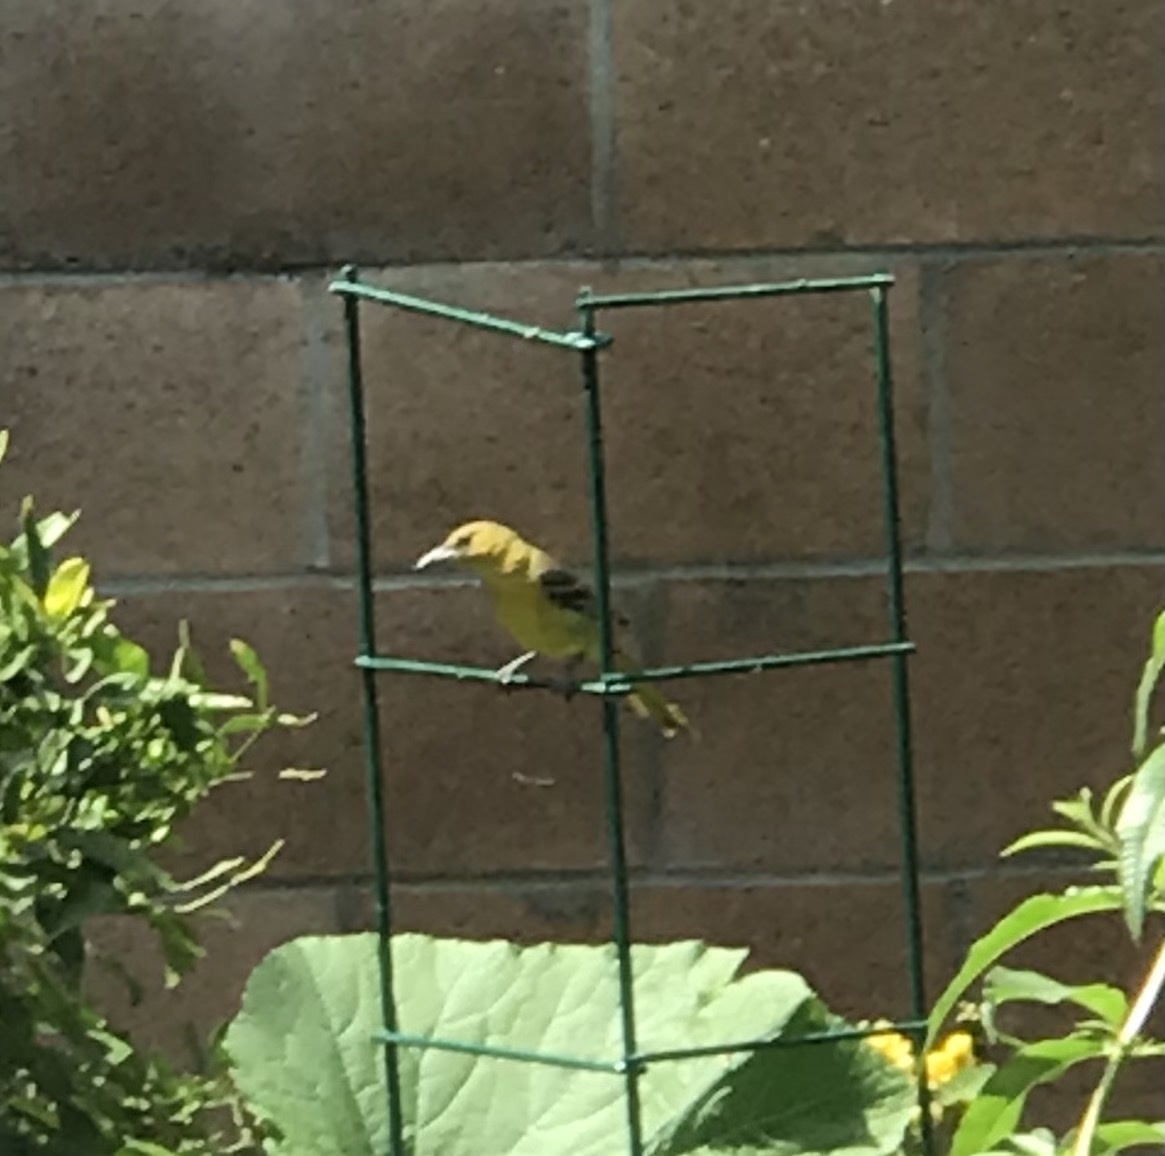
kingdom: Animalia
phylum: Chordata
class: Aves
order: Passeriformes
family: Icteridae
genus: Icterus
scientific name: Icterus cucullatus
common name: Hooded oriole
